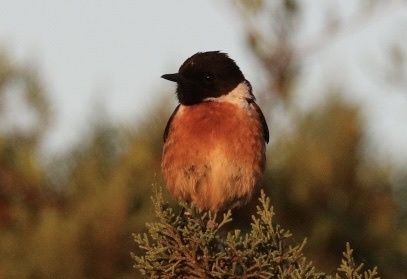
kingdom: Animalia
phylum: Chordata
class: Aves
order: Passeriformes
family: Muscicapidae
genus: Saxicola
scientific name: Saxicola rubicola
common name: European stonechat
